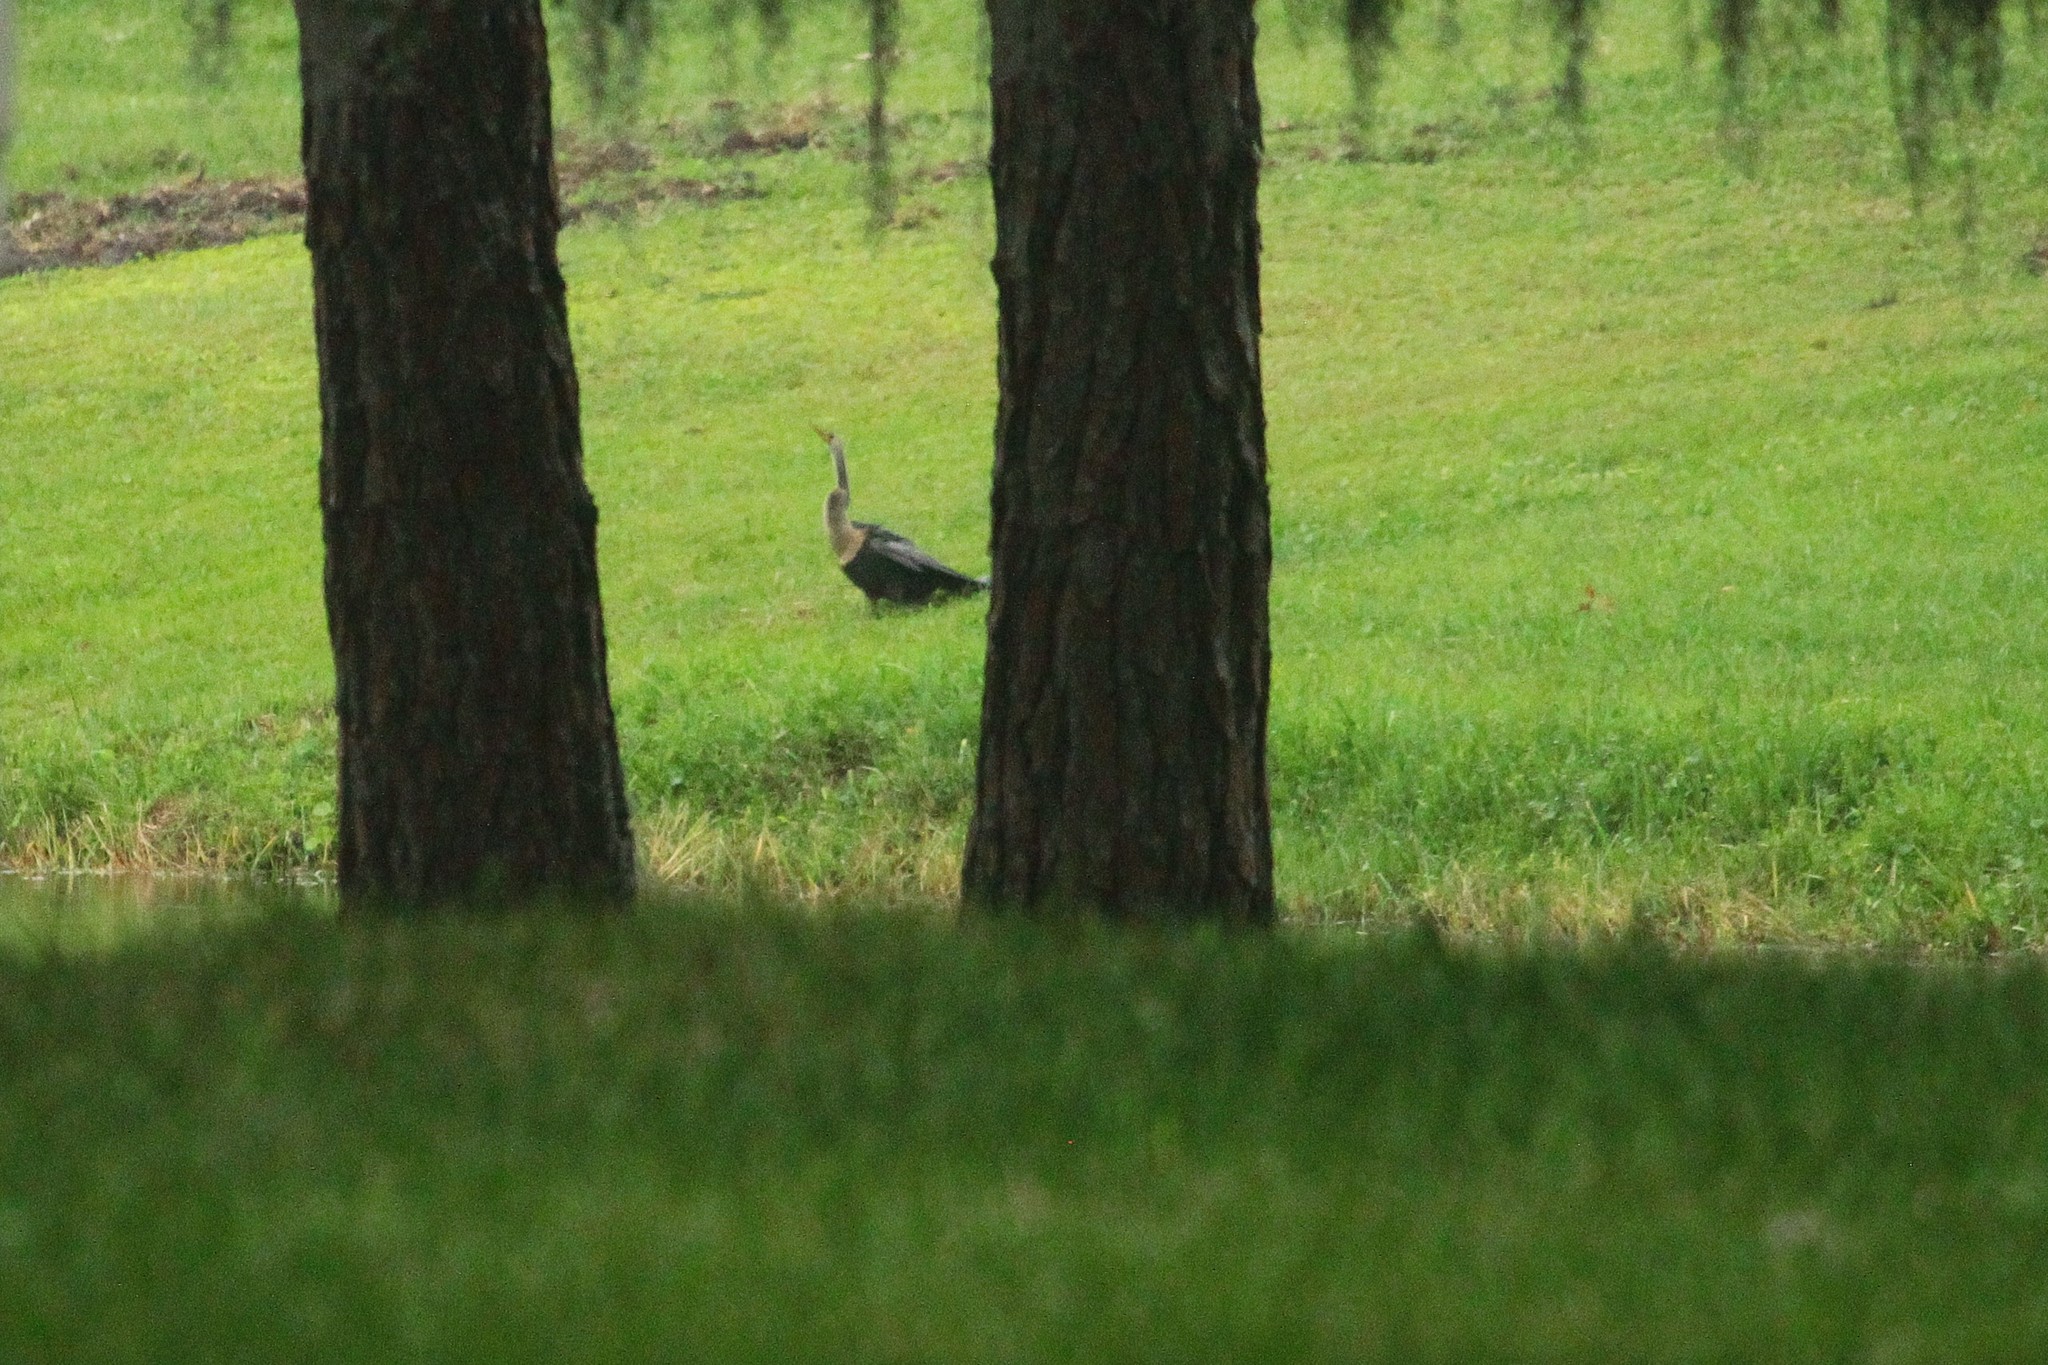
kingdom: Animalia
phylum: Chordata
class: Aves
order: Suliformes
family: Anhingidae
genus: Anhinga
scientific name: Anhinga anhinga
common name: Anhinga
